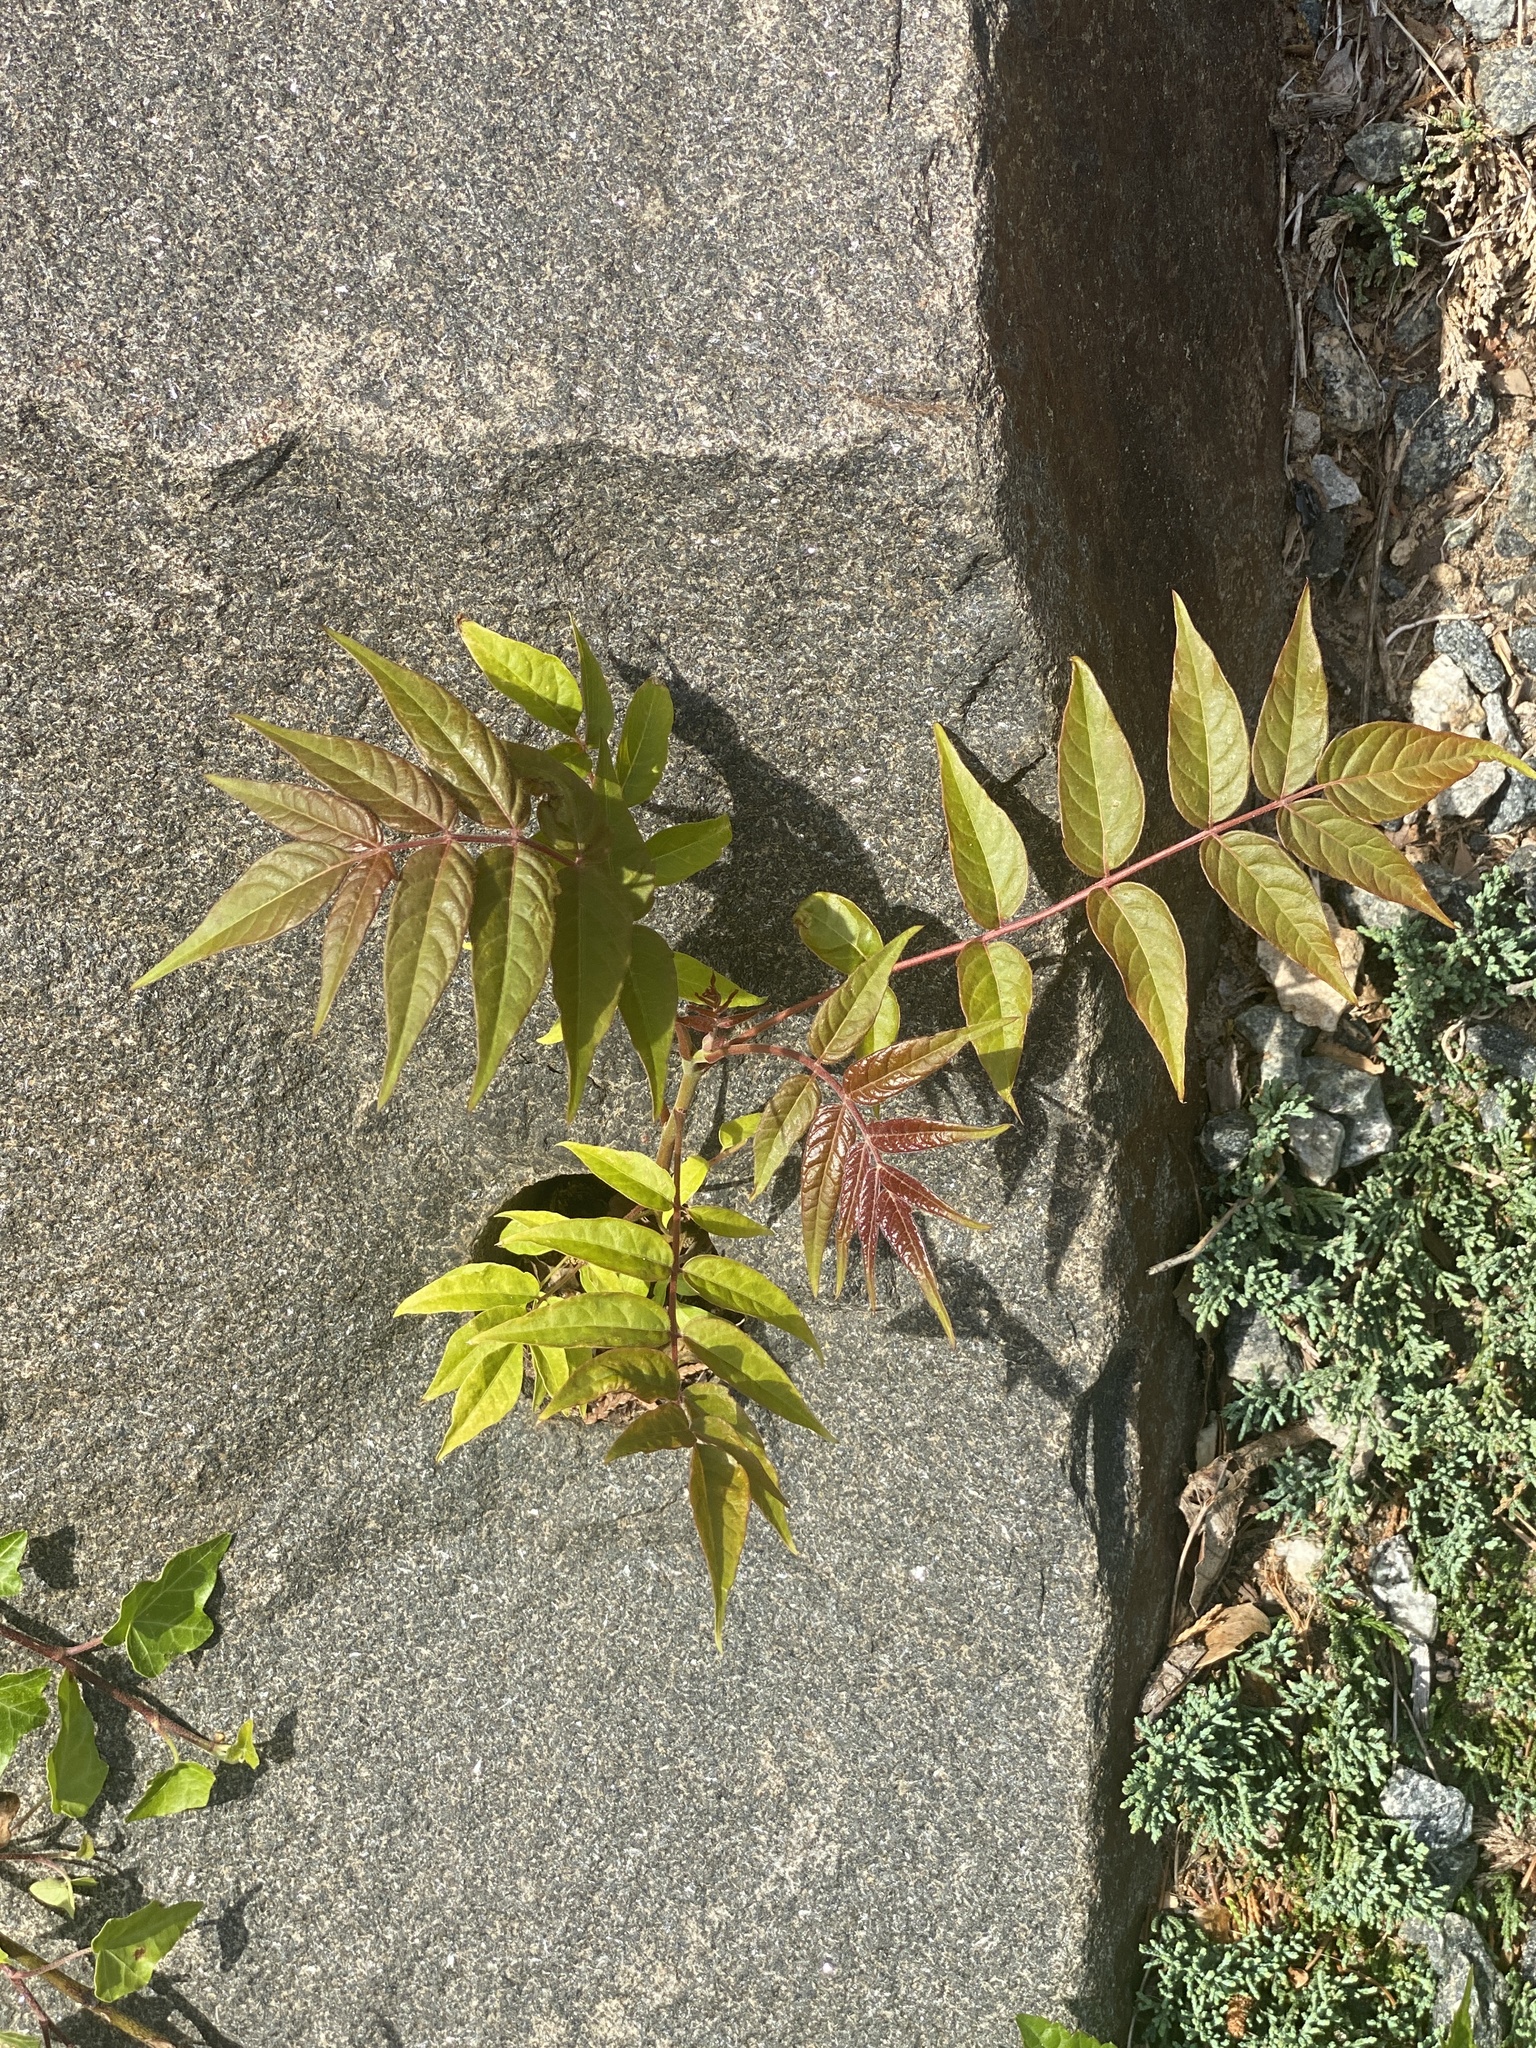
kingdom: Plantae
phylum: Tracheophyta
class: Magnoliopsida
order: Sapindales
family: Simaroubaceae
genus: Ailanthus
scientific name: Ailanthus altissima
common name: Tree-of-heaven
